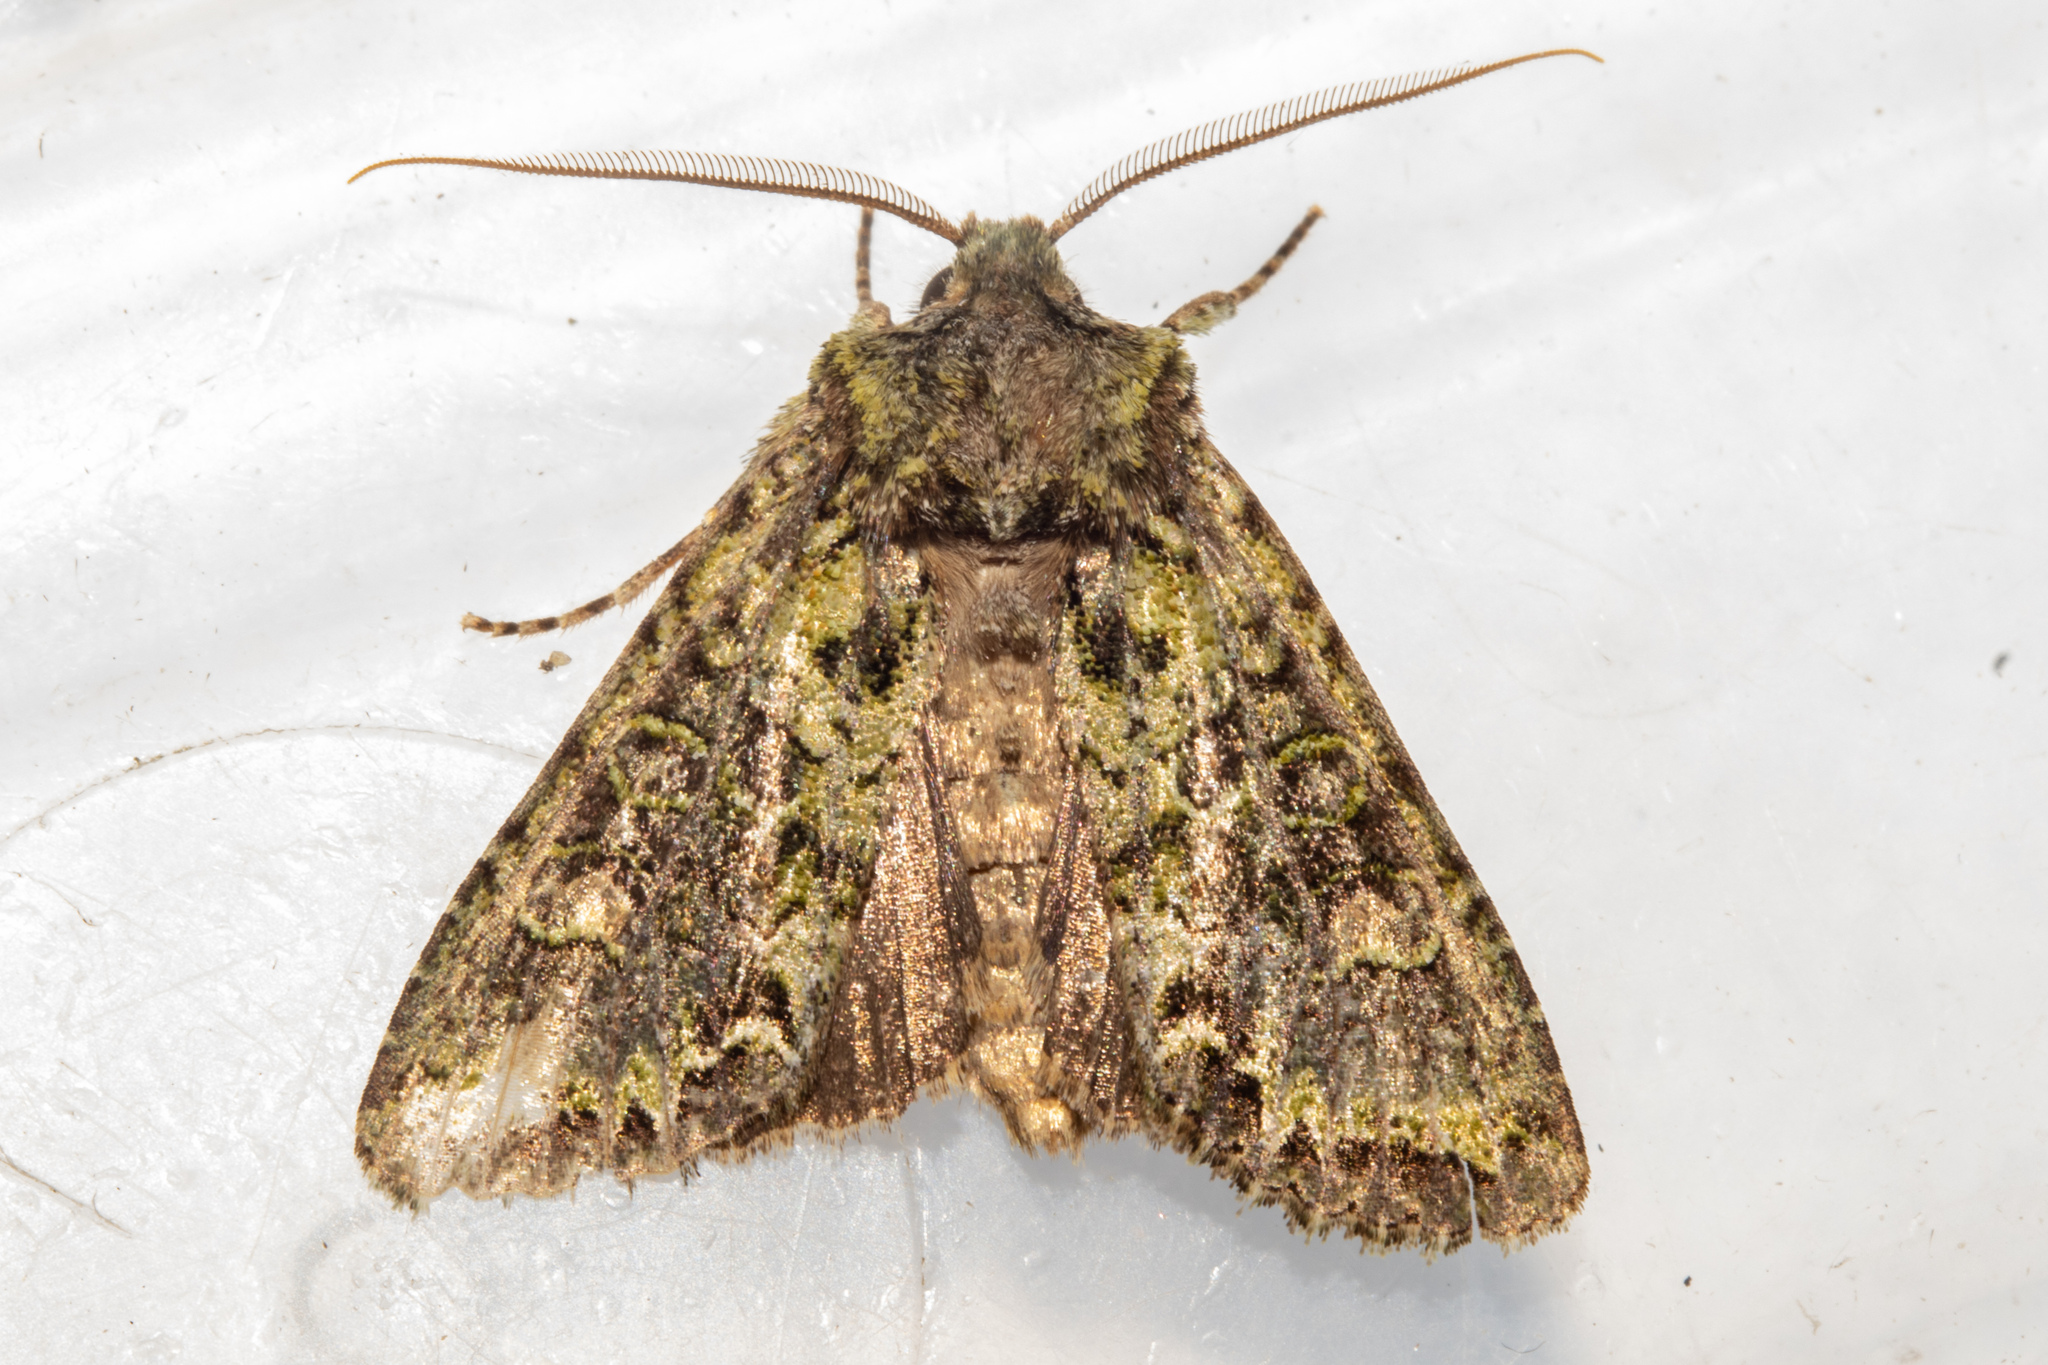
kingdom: Animalia
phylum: Arthropoda
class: Insecta
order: Lepidoptera
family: Noctuidae
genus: Ichneutica
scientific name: Ichneutica
